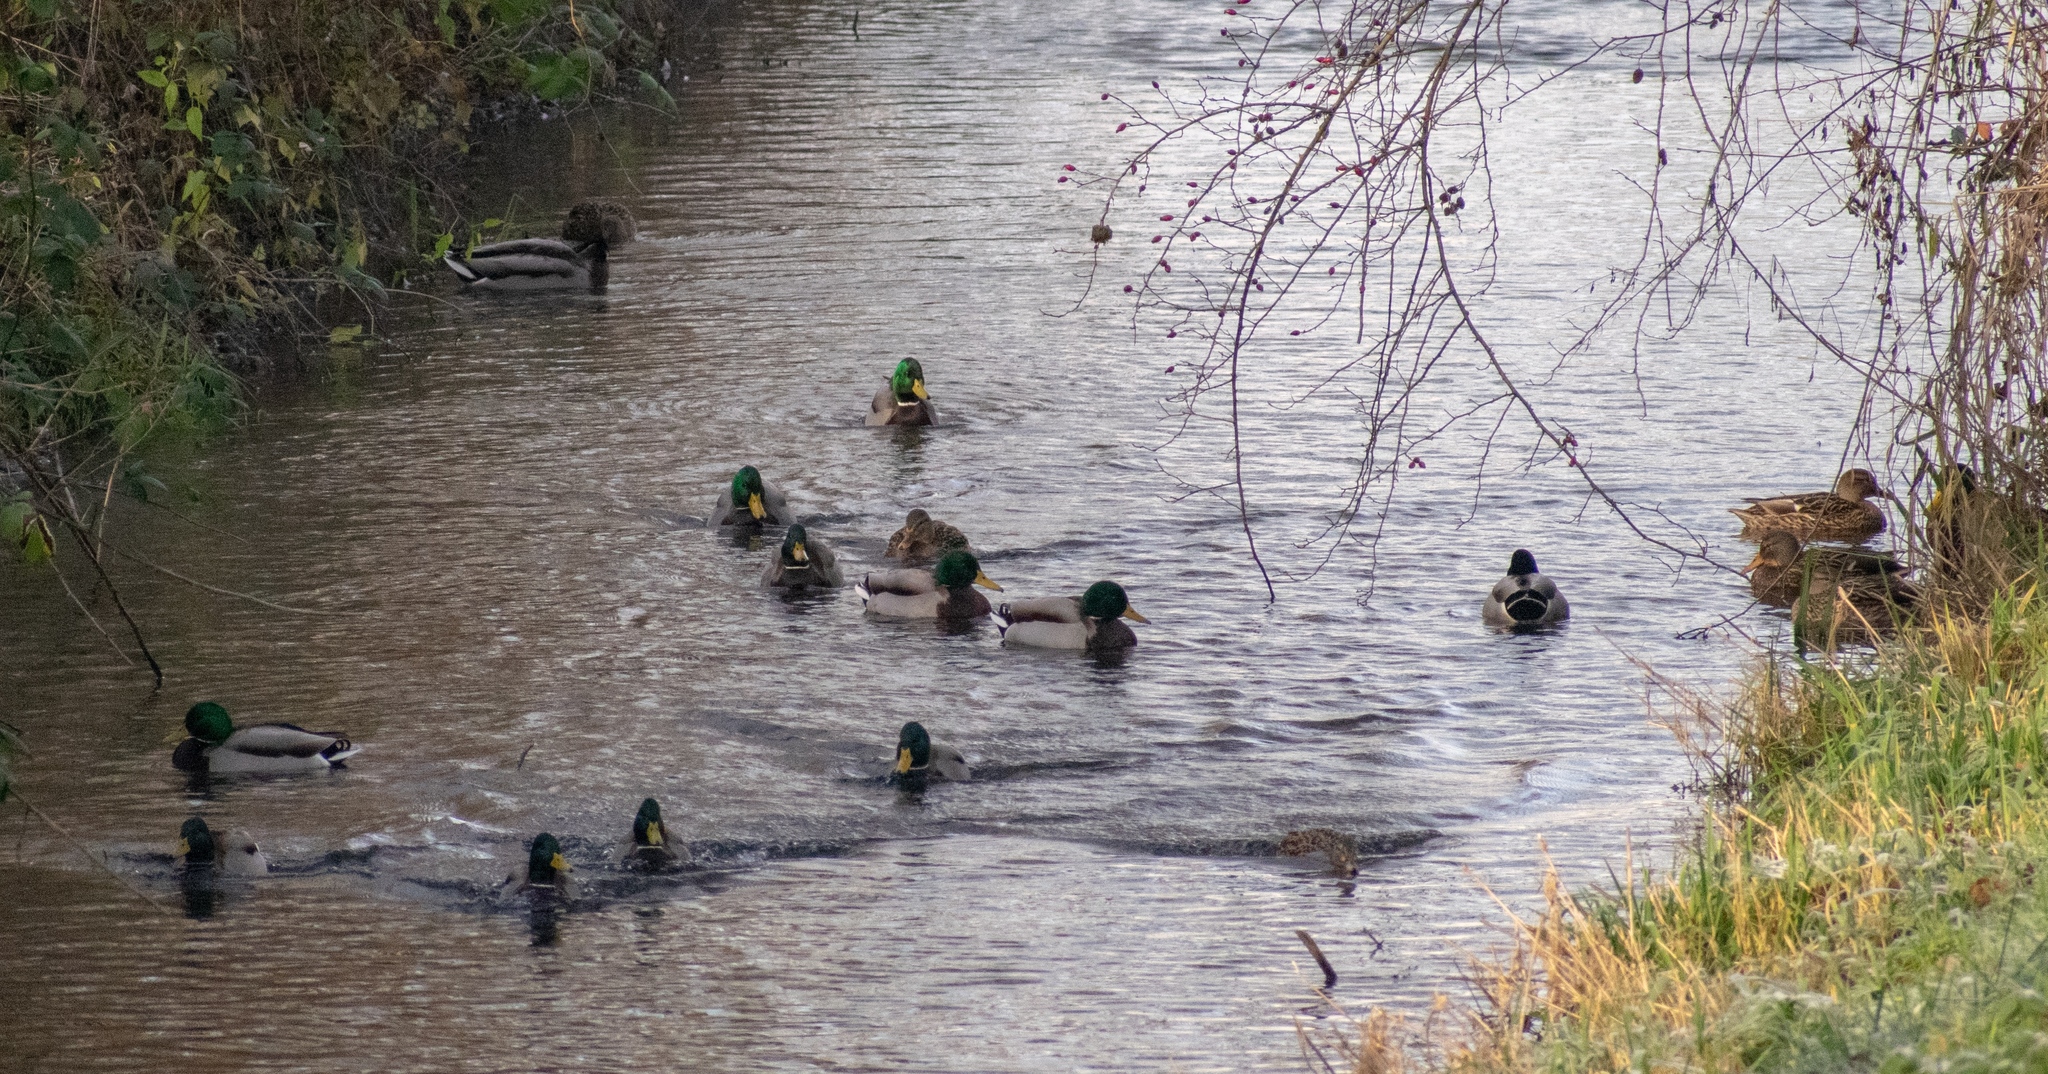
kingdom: Animalia
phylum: Chordata
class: Aves
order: Anseriformes
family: Anatidae
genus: Anas
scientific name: Anas platyrhynchos
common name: Mallard
